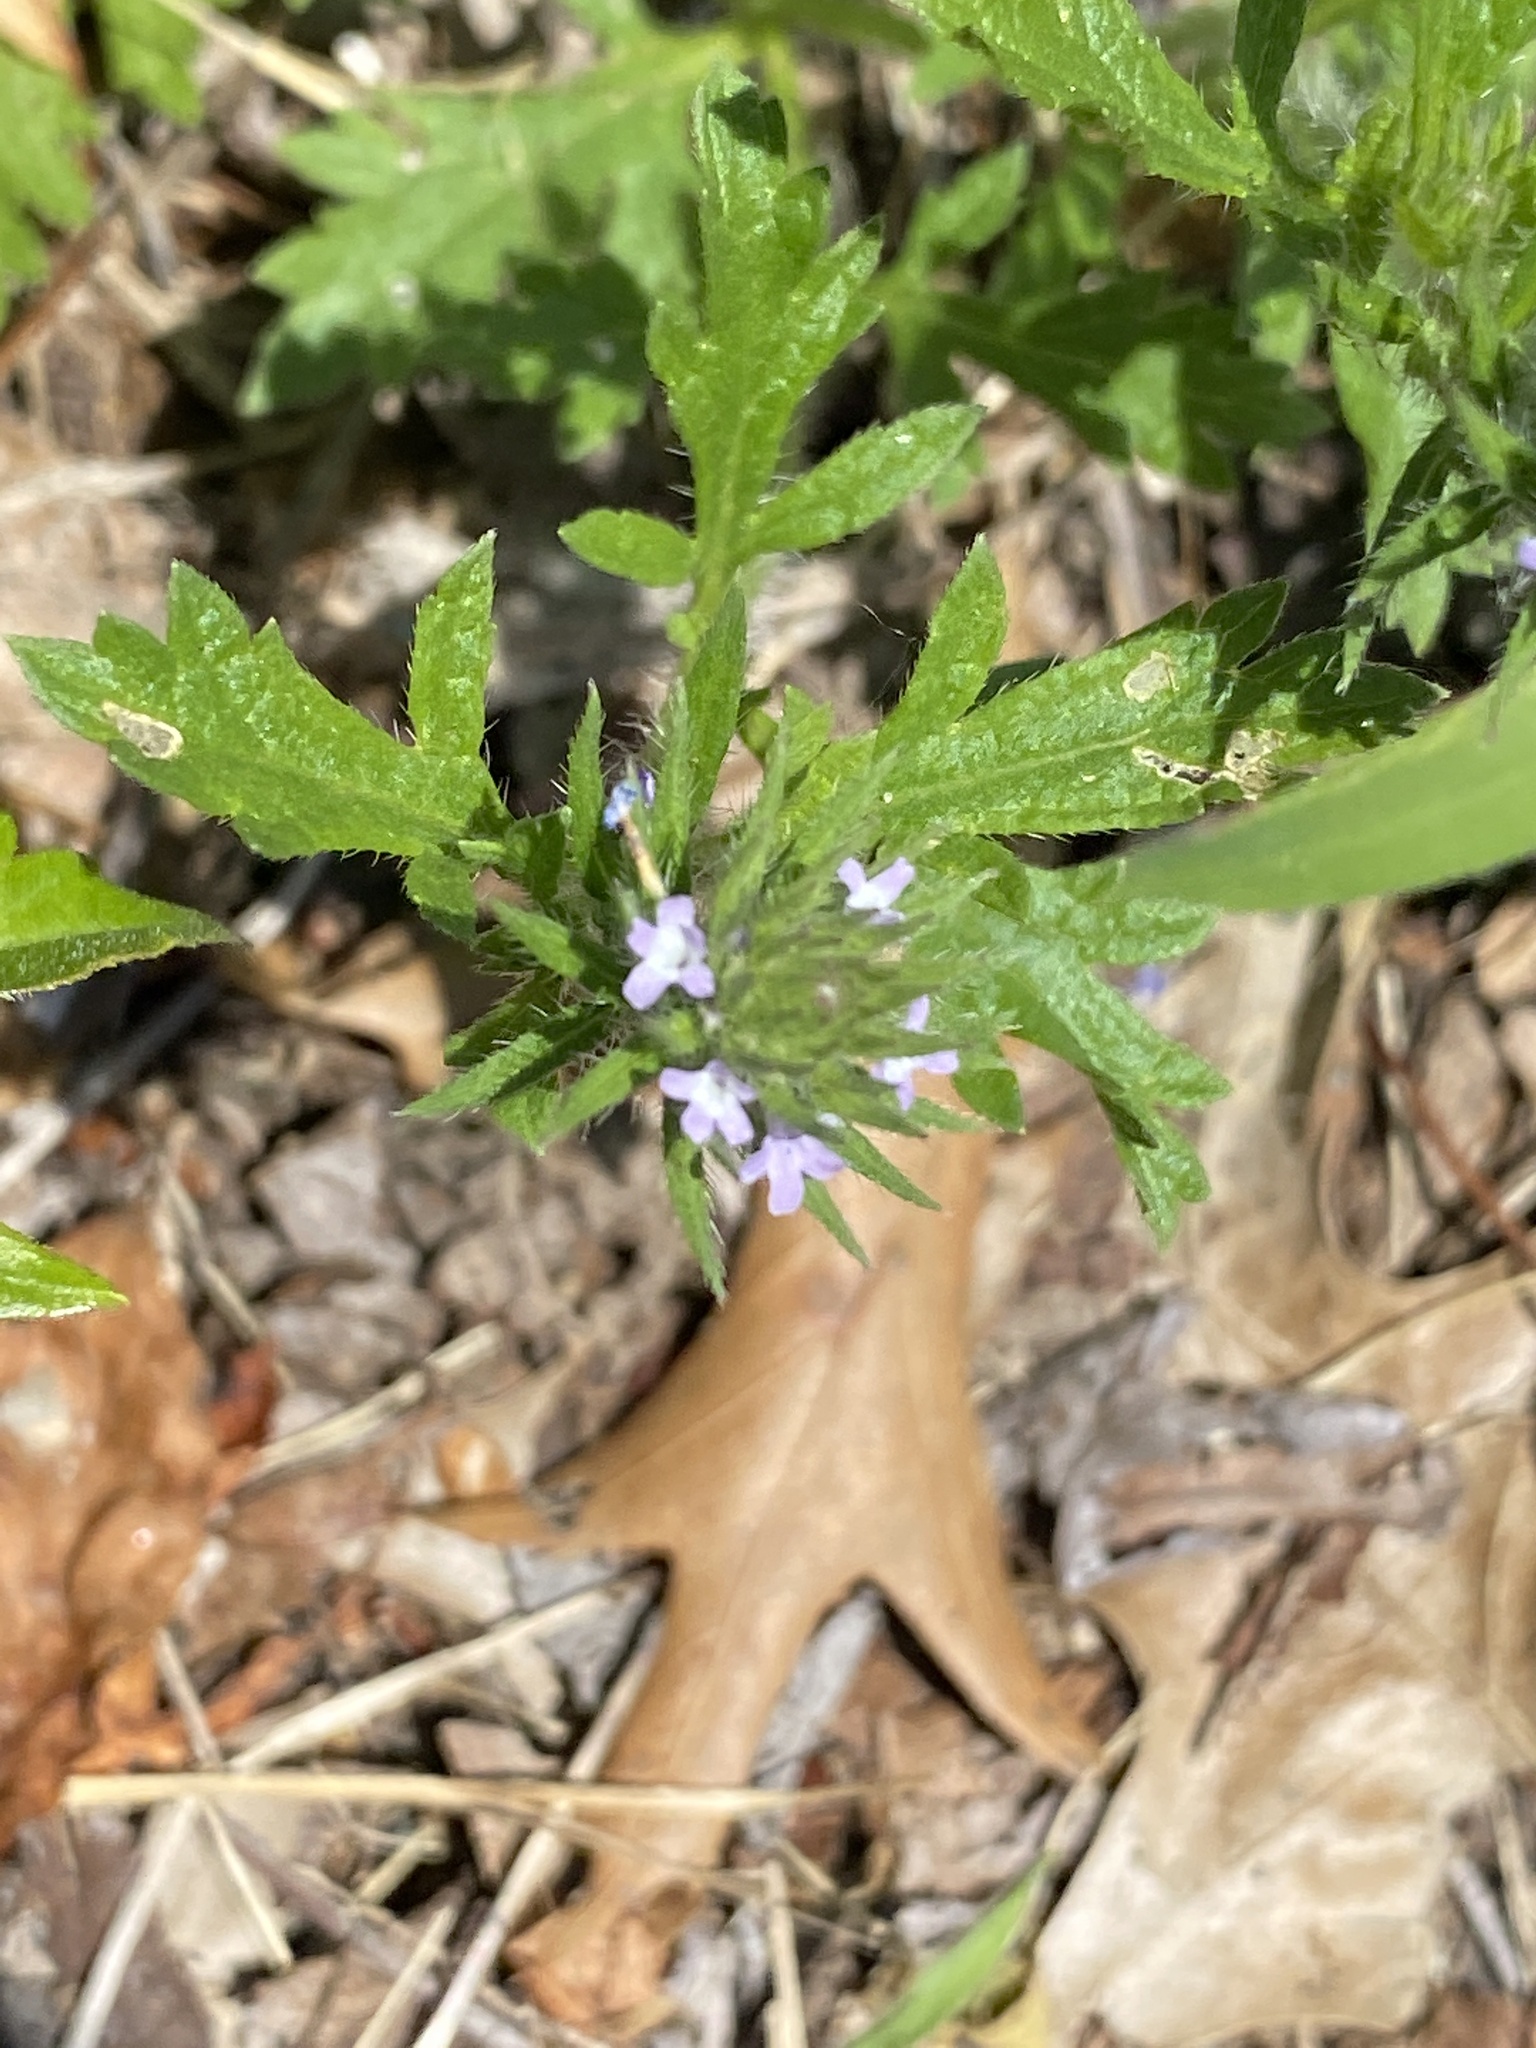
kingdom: Plantae
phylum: Tracheophyta
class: Magnoliopsida
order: Lamiales
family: Verbenaceae
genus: Verbena
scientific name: Verbena bracteata
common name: Bracted vervain
